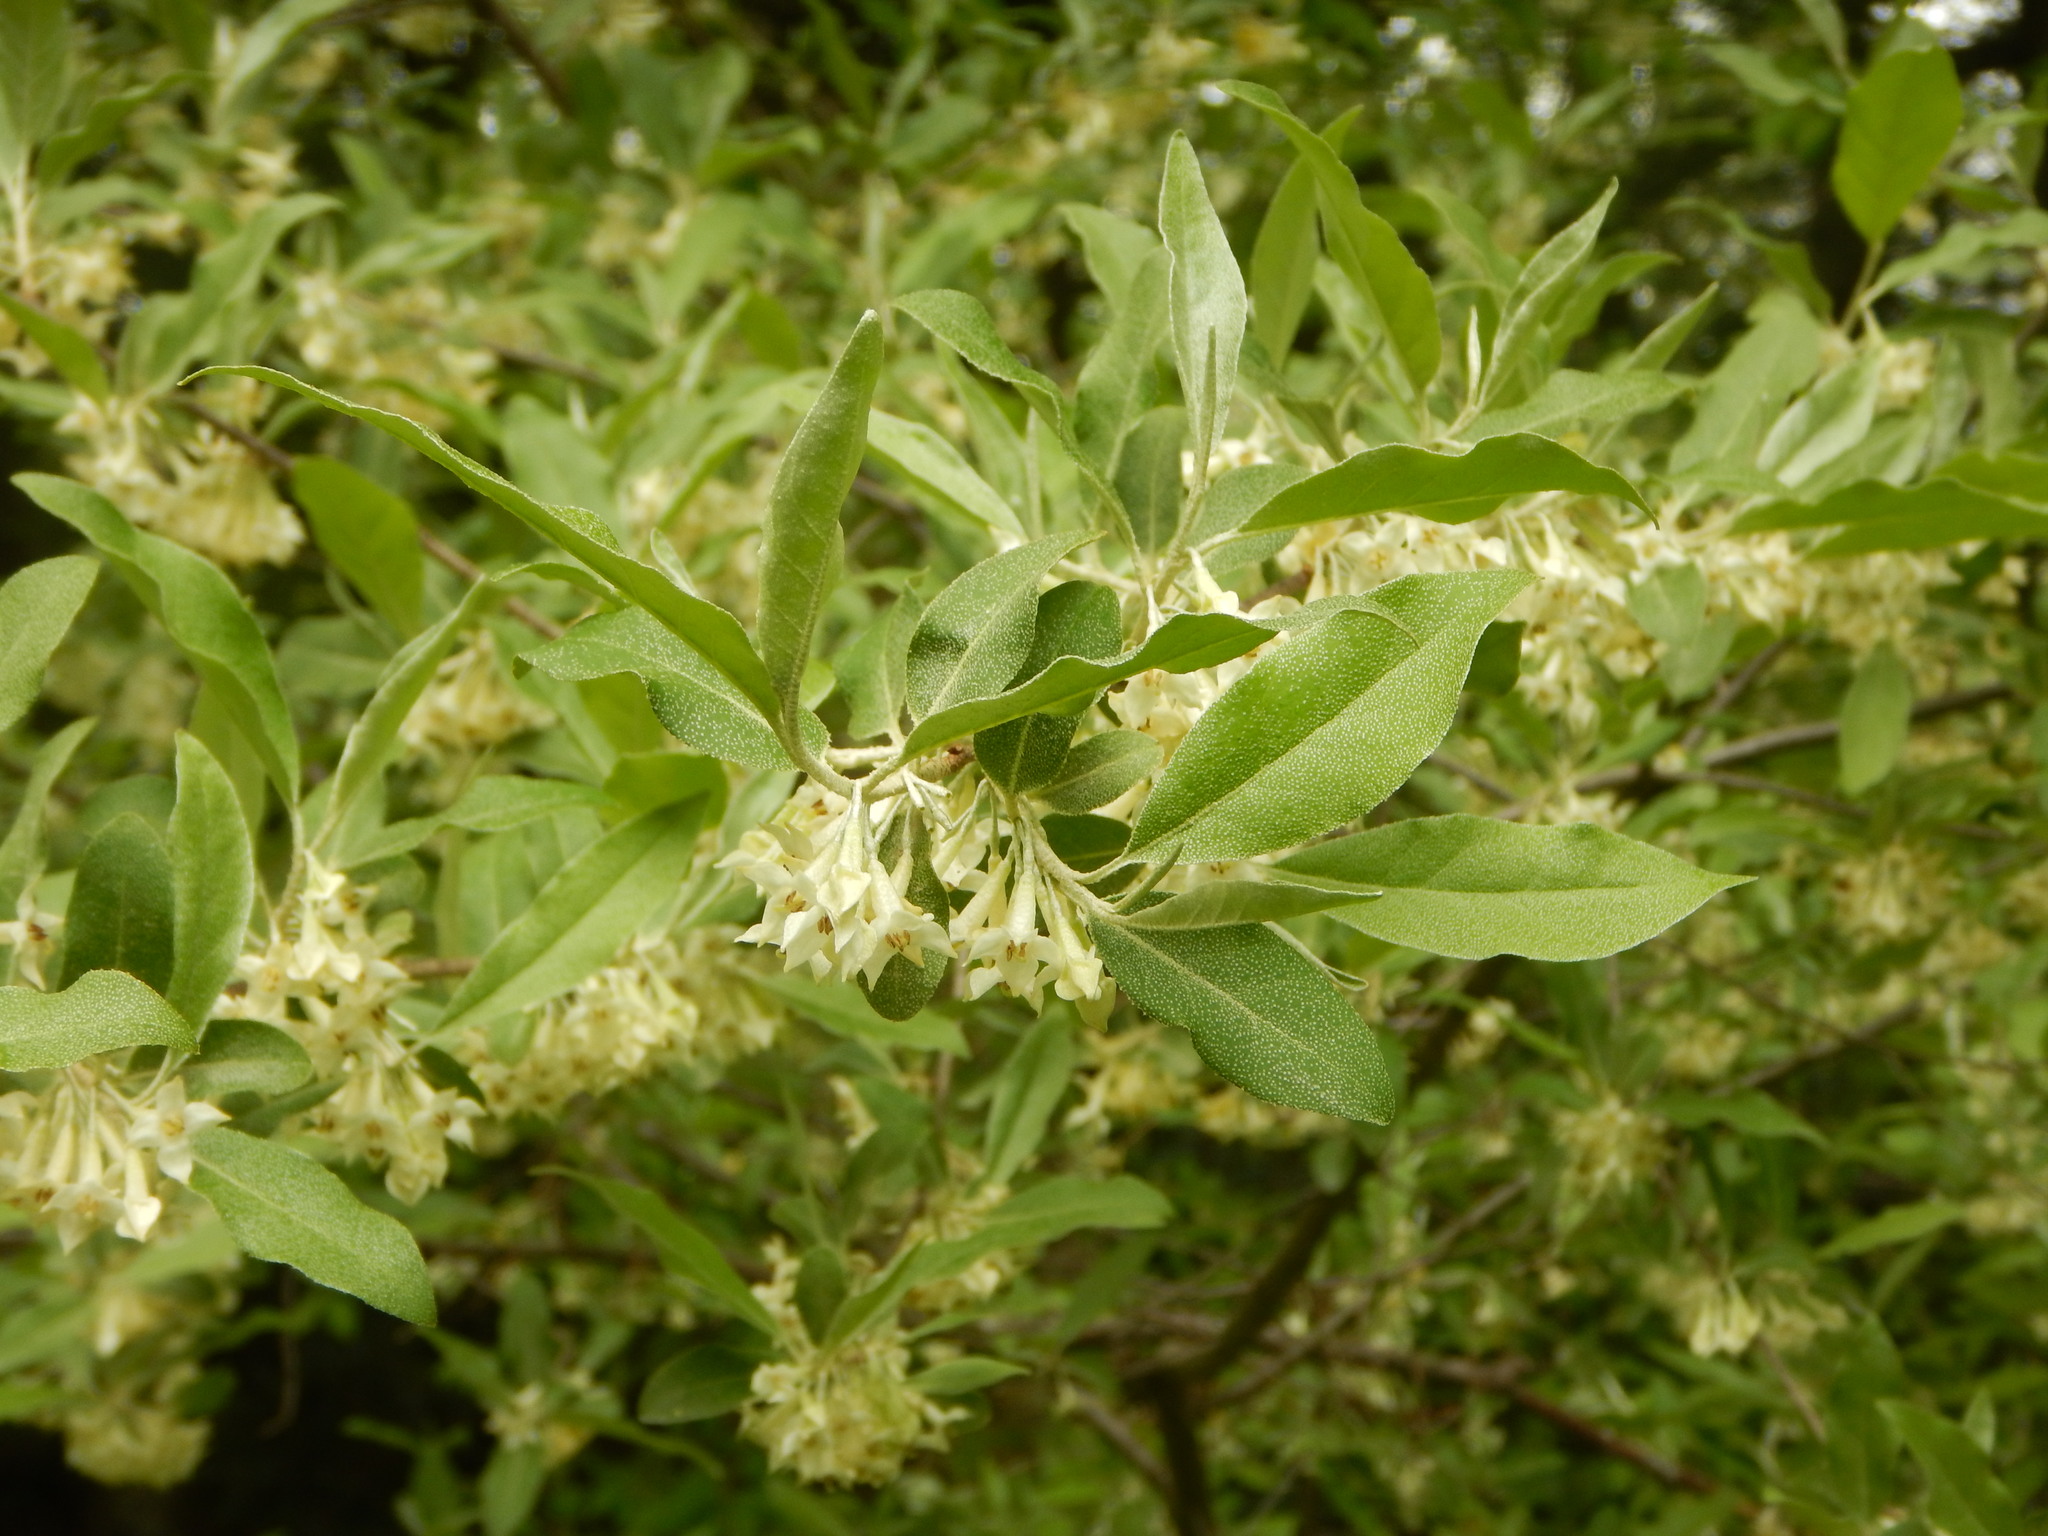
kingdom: Plantae
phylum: Tracheophyta
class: Magnoliopsida
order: Rosales
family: Elaeagnaceae
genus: Elaeagnus
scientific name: Elaeagnus umbellata
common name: Autumn olive
